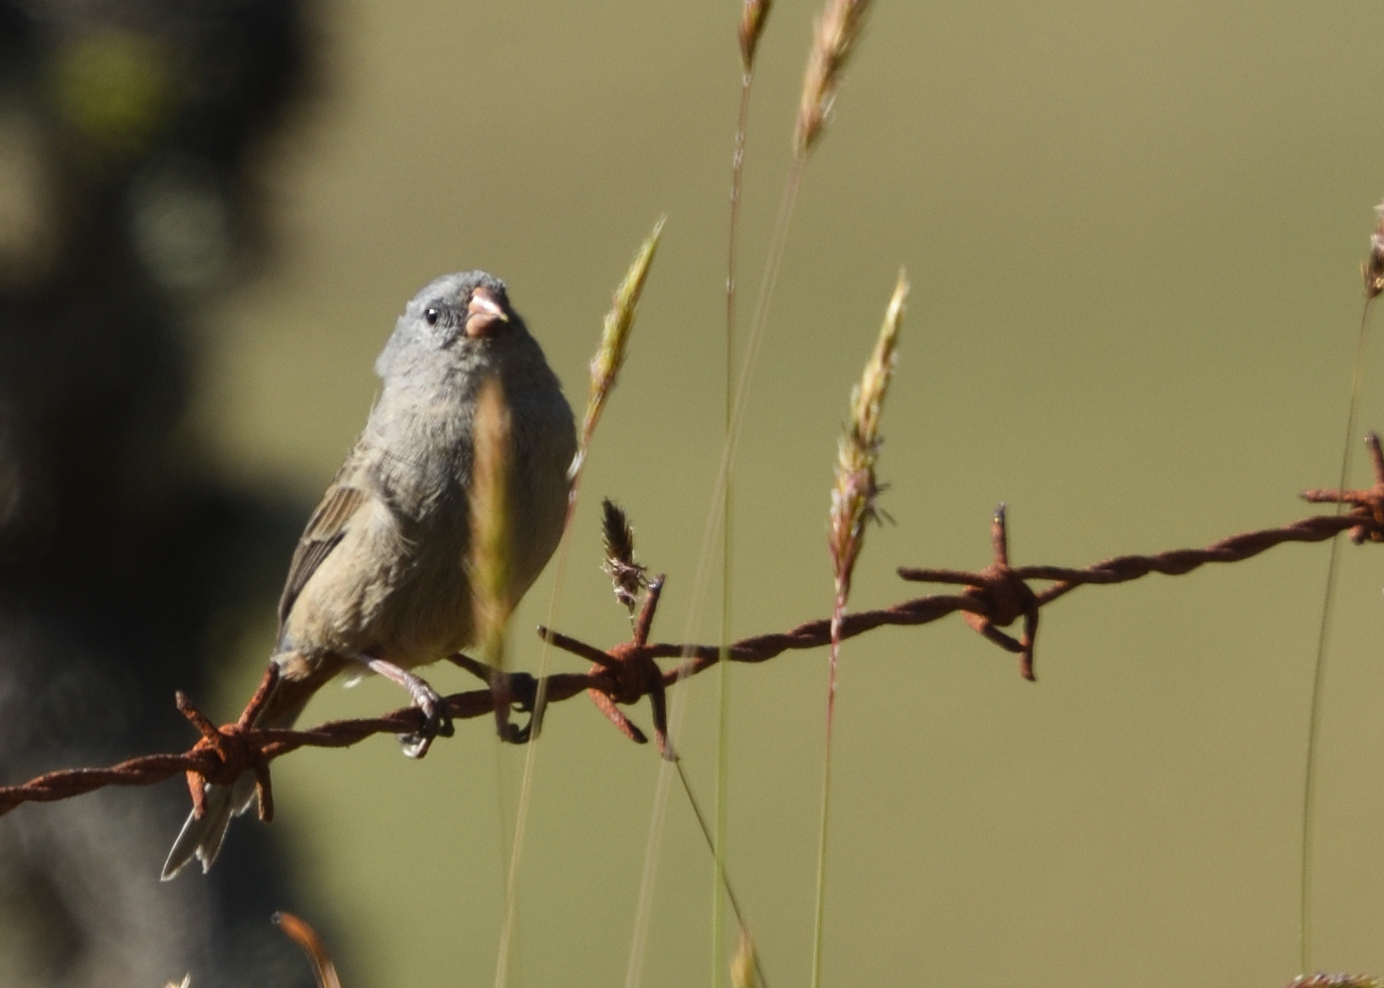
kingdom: Animalia
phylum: Chordata
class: Aves
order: Passeriformes
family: Thraupidae
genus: Catamenia
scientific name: Catamenia inornata
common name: Plain-colored seedeater
